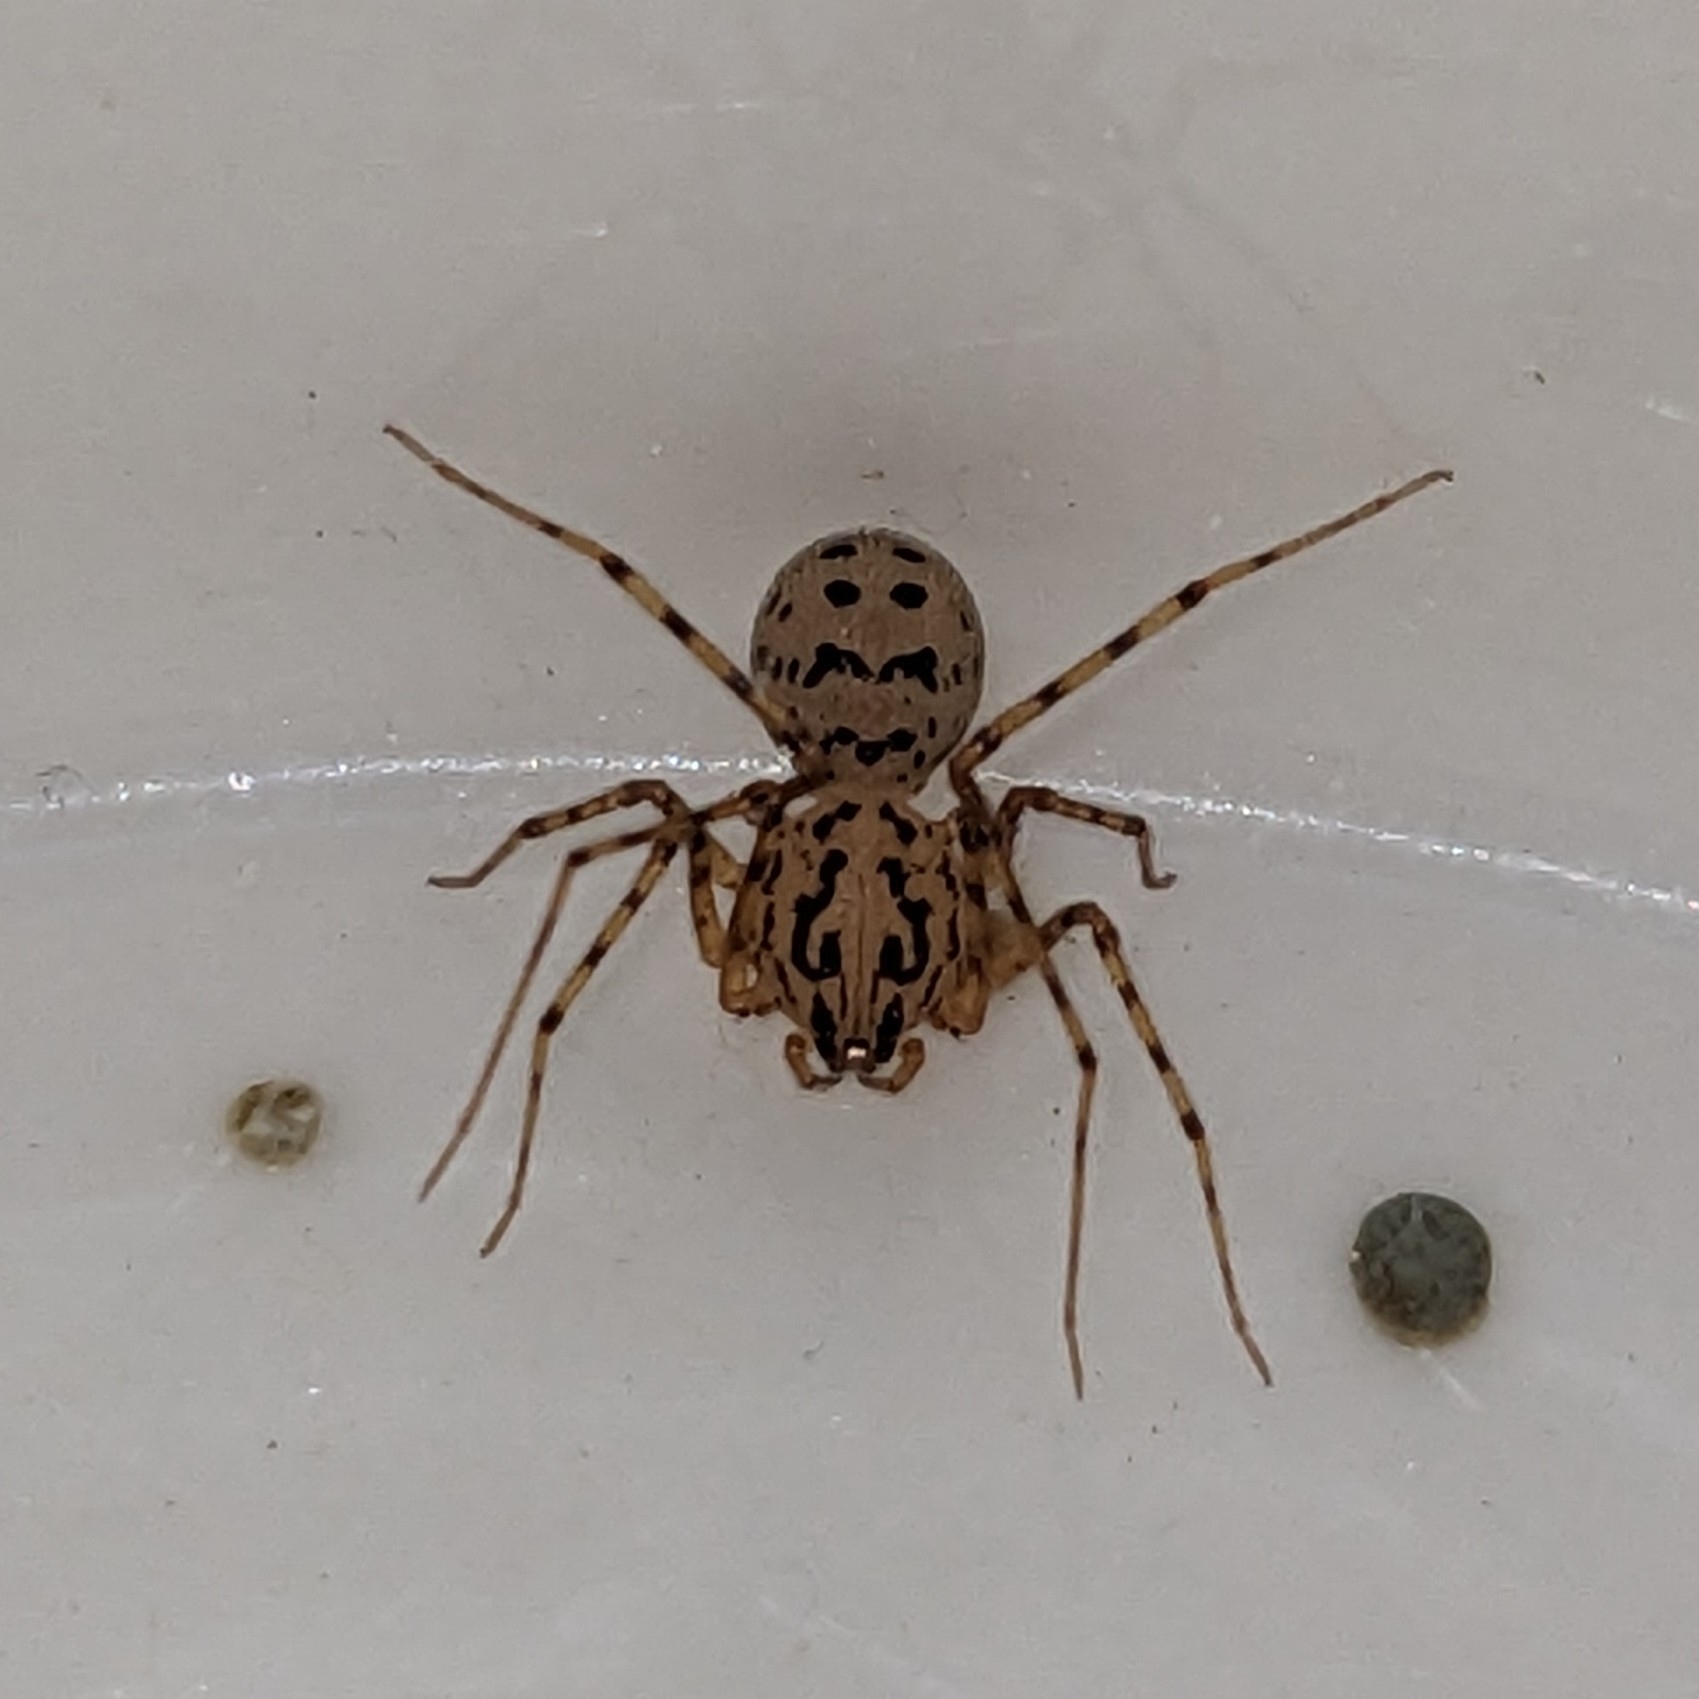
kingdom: Animalia
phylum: Arthropoda
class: Arachnida
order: Araneae
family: Scytodidae
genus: Scytodes
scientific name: Scytodes thoracica
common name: Spitting spider
